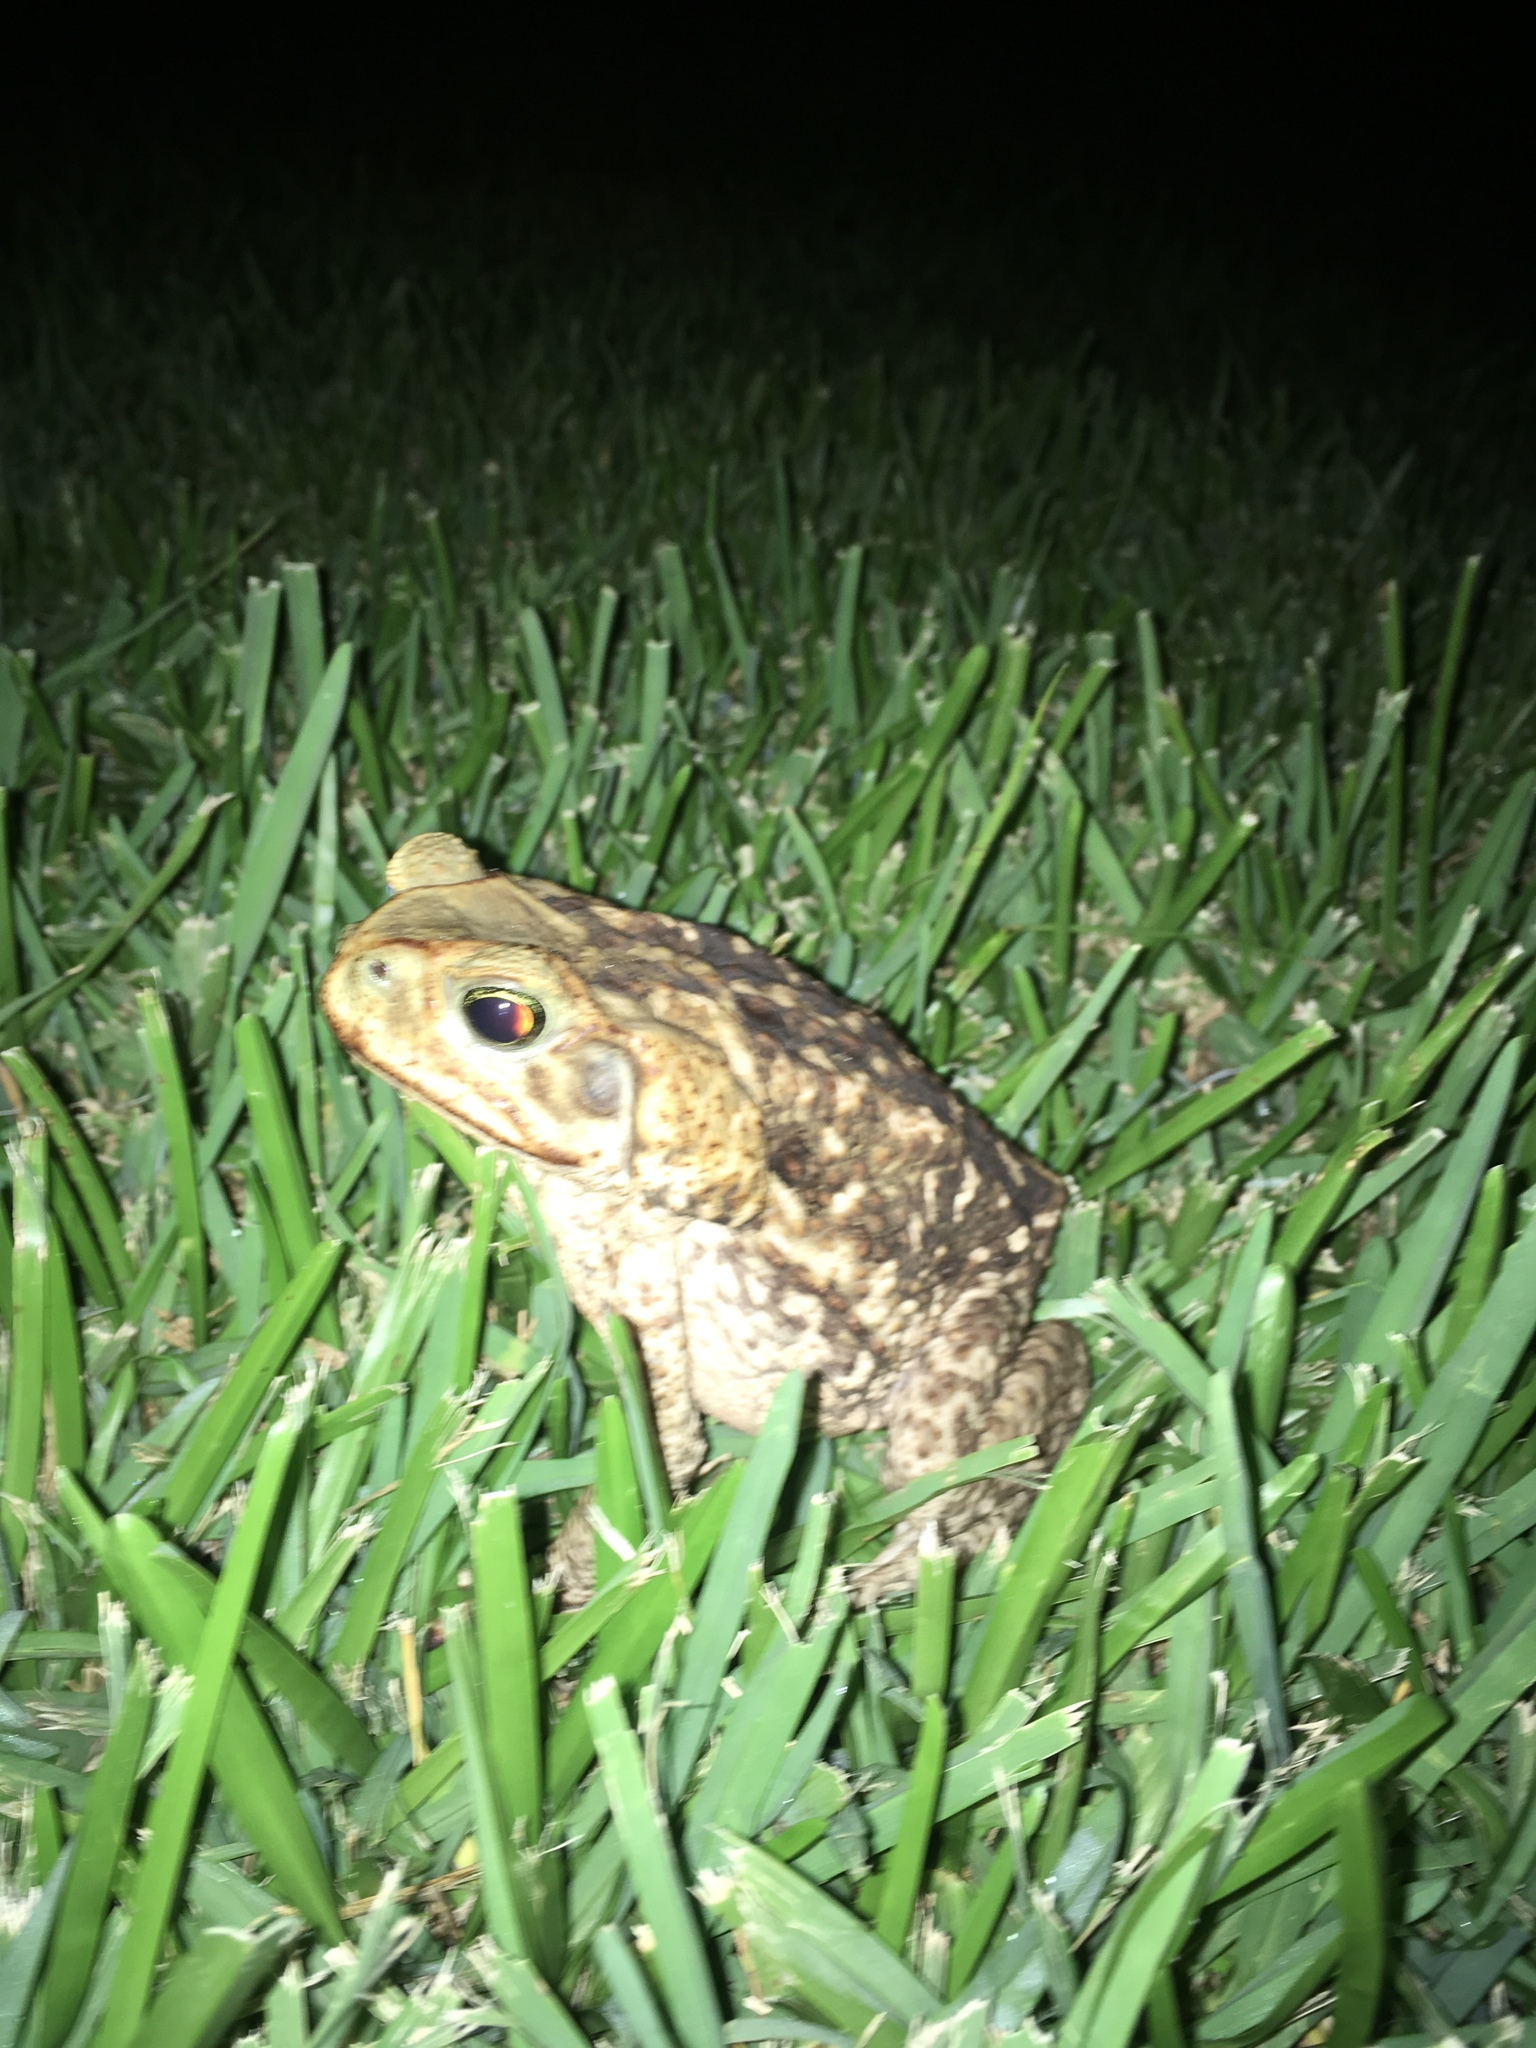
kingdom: Animalia
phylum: Chordata
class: Amphibia
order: Anura
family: Bufonidae
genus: Rhinella
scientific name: Rhinella marina
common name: Cane toad
